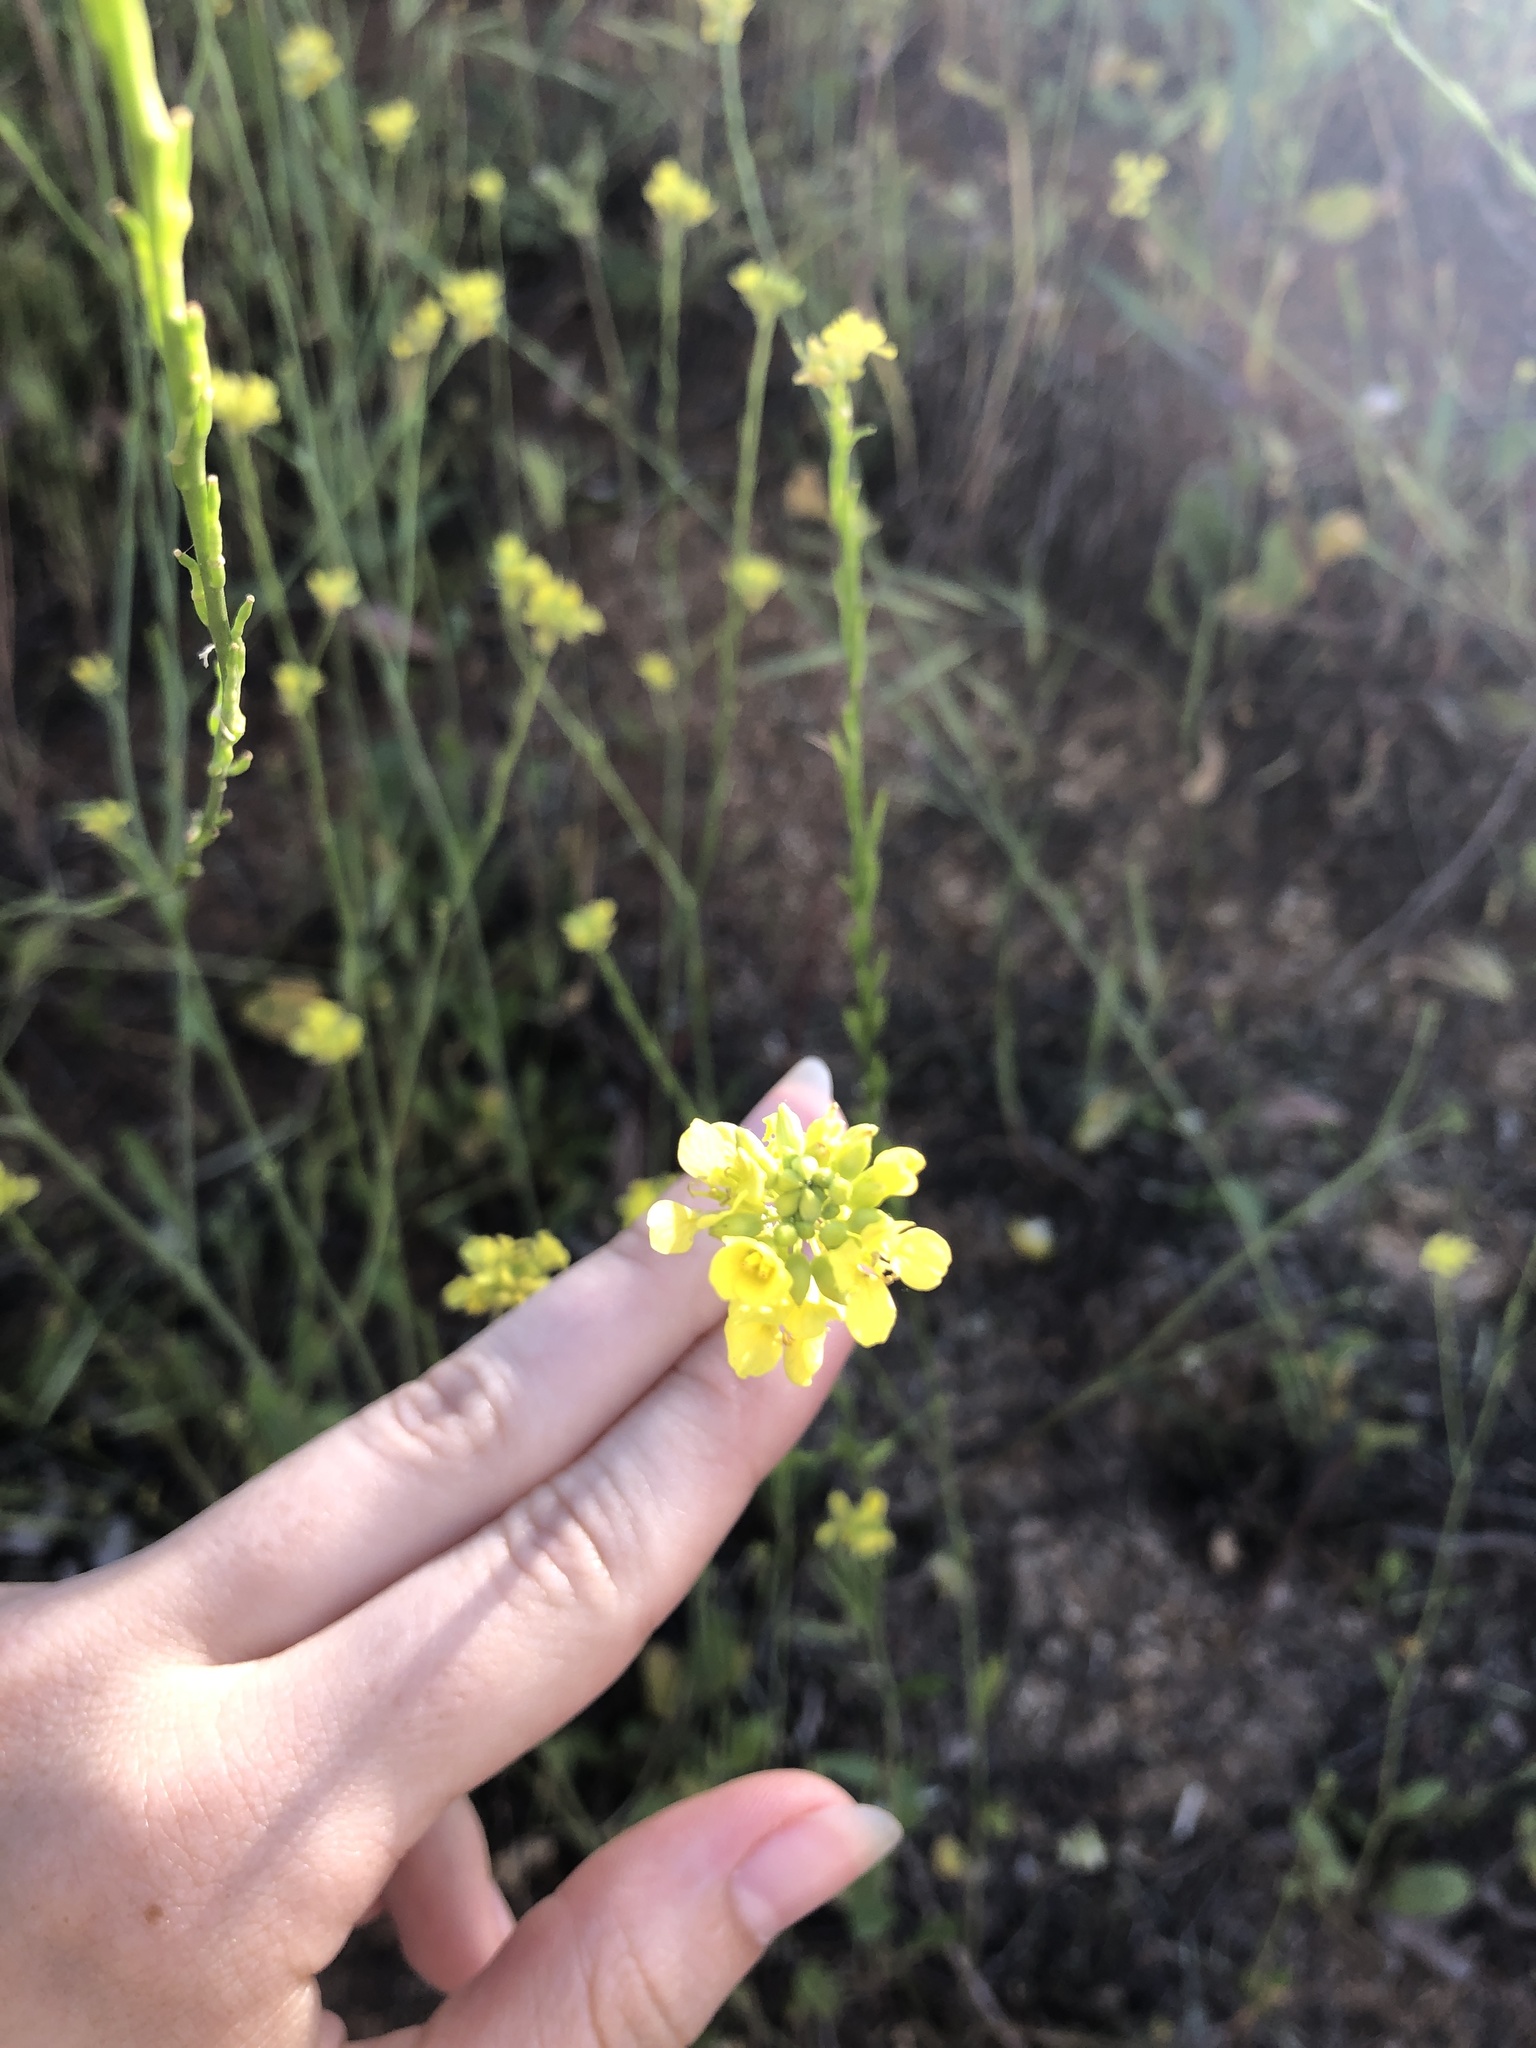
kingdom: Plantae
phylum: Tracheophyta
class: Magnoliopsida
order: Brassicales
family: Brassicaceae
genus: Hirschfeldia
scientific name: Hirschfeldia incana
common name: Hoary mustard
